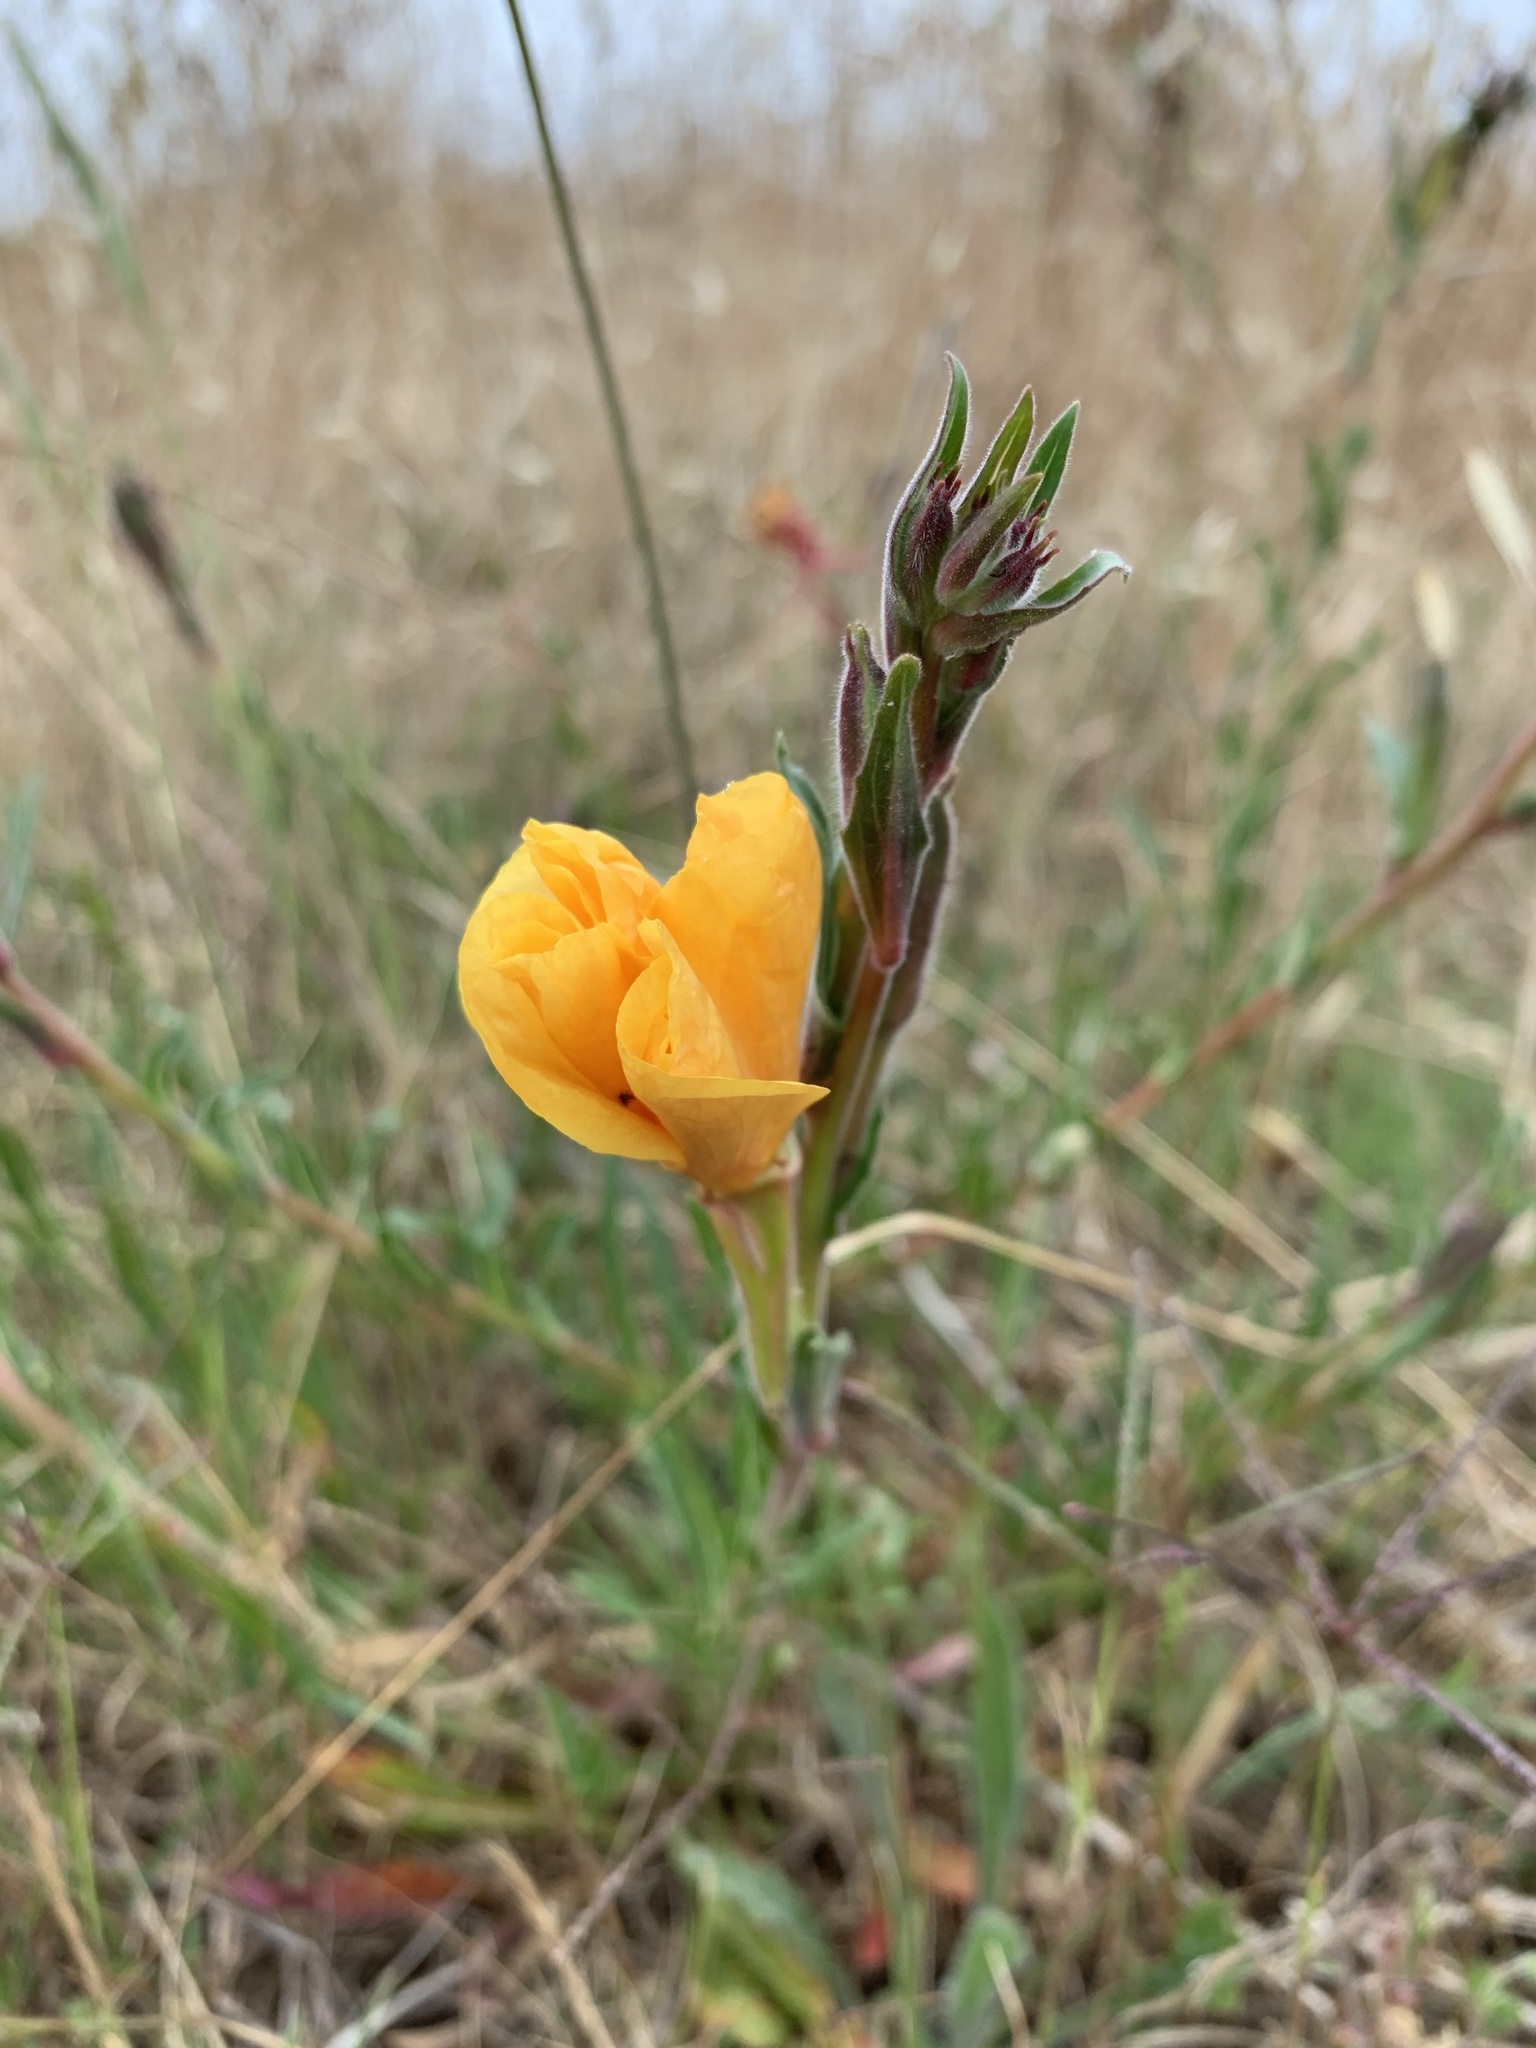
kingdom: Plantae
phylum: Tracheophyta
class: Magnoliopsida
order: Myrtales
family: Onagraceae
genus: Oenothera
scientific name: Oenothera stricta
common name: Fragrant evening-primrose
